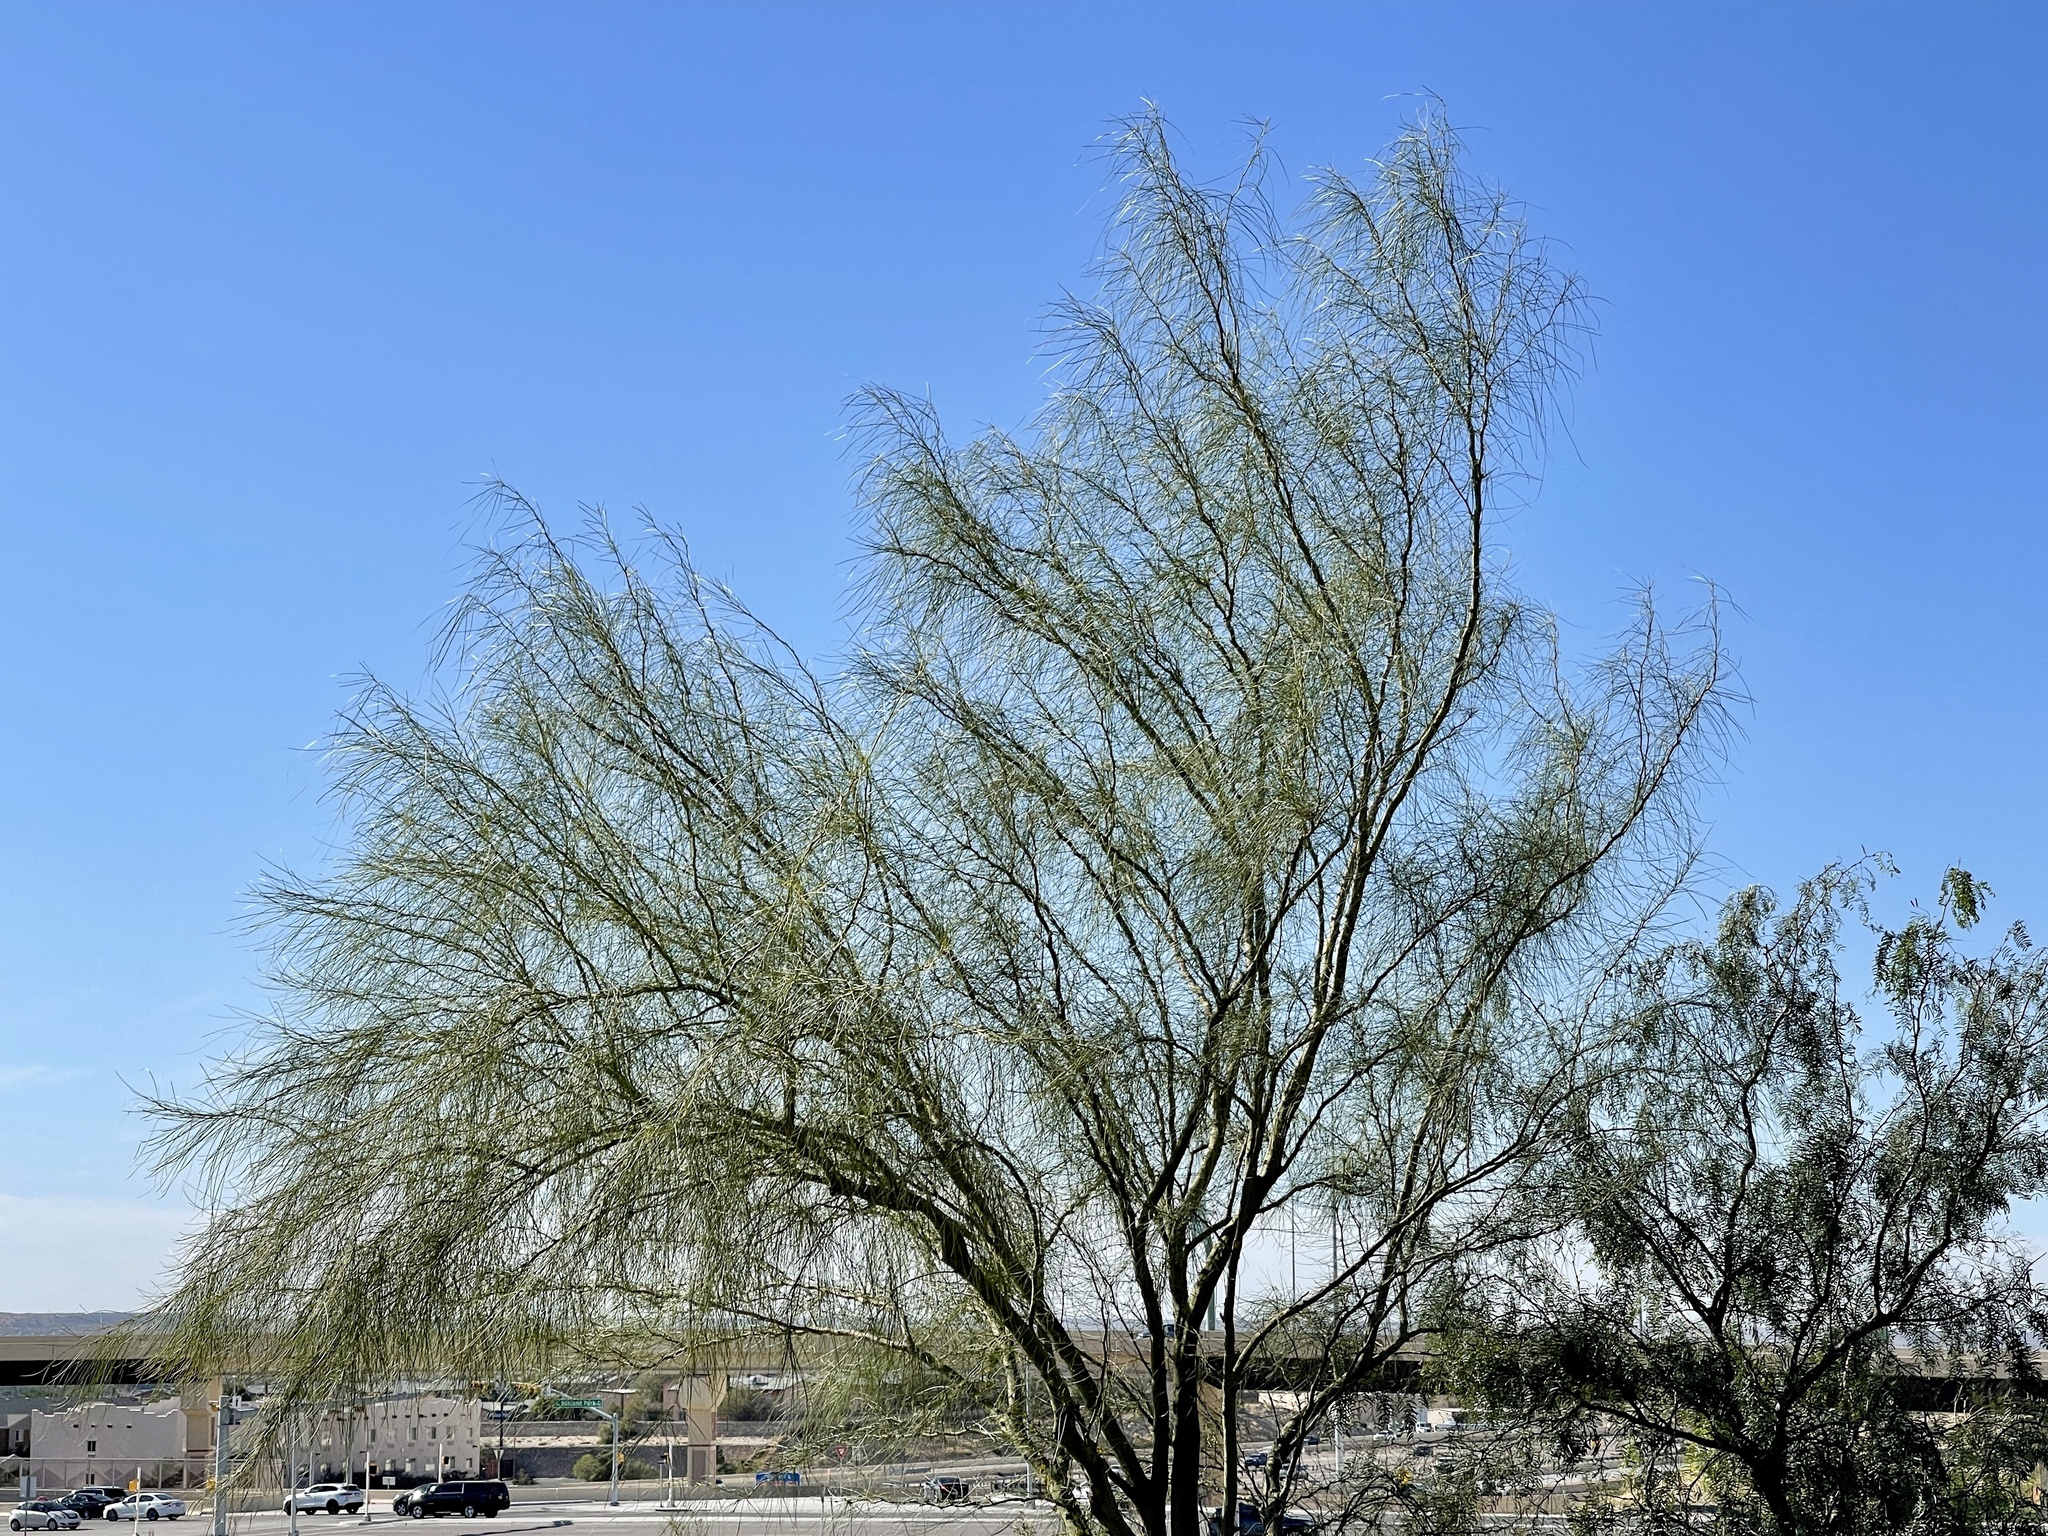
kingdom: Plantae
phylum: Tracheophyta
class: Magnoliopsida
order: Fabales
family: Fabaceae
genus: Parkinsonia
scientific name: Parkinsonia aculeata
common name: Jerusalem thorn
